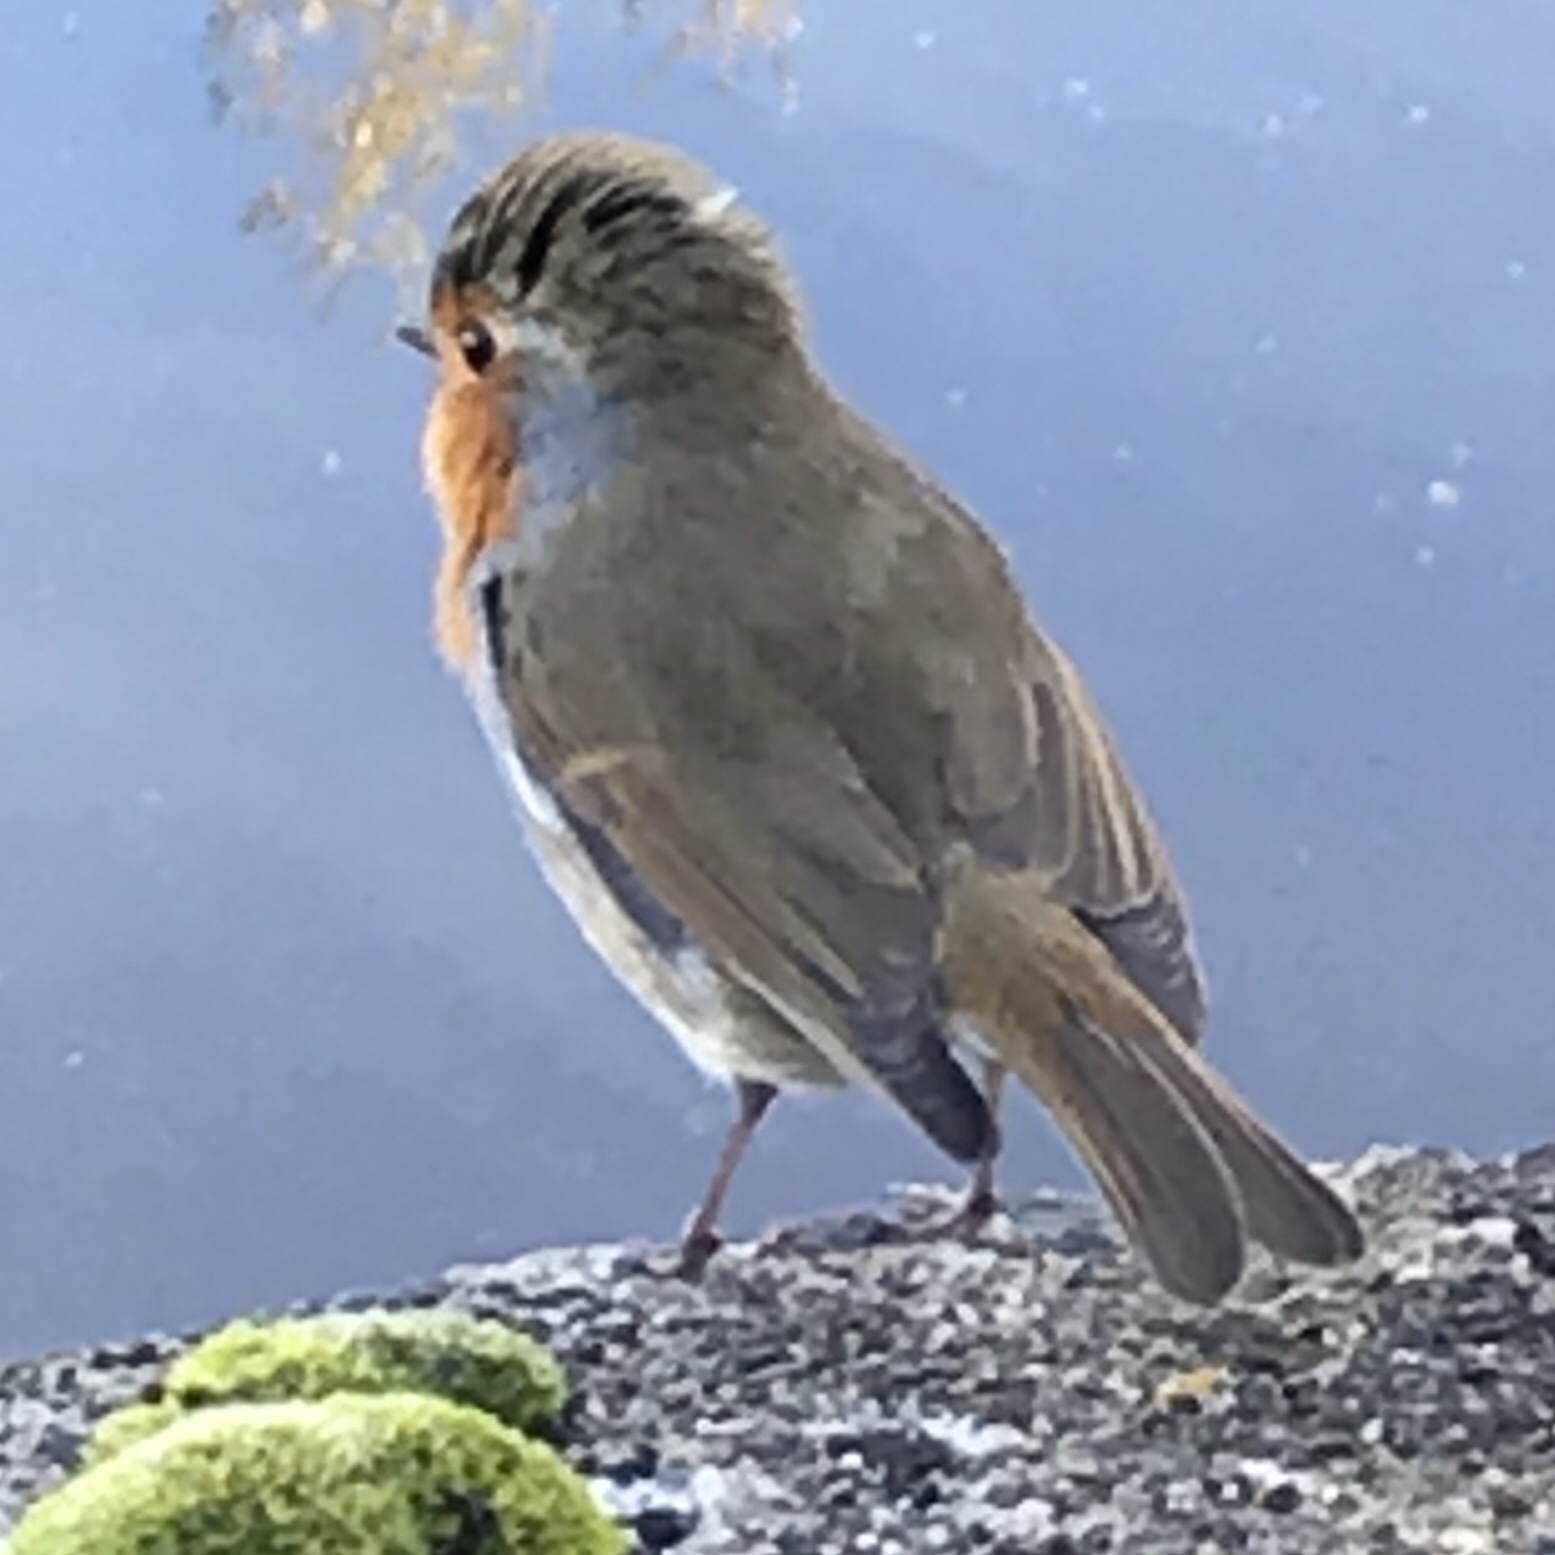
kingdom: Animalia
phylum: Chordata
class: Aves
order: Passeriformes
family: Muscicapidae
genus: Erithacus
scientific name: Erithacus rubecula
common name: European robin
